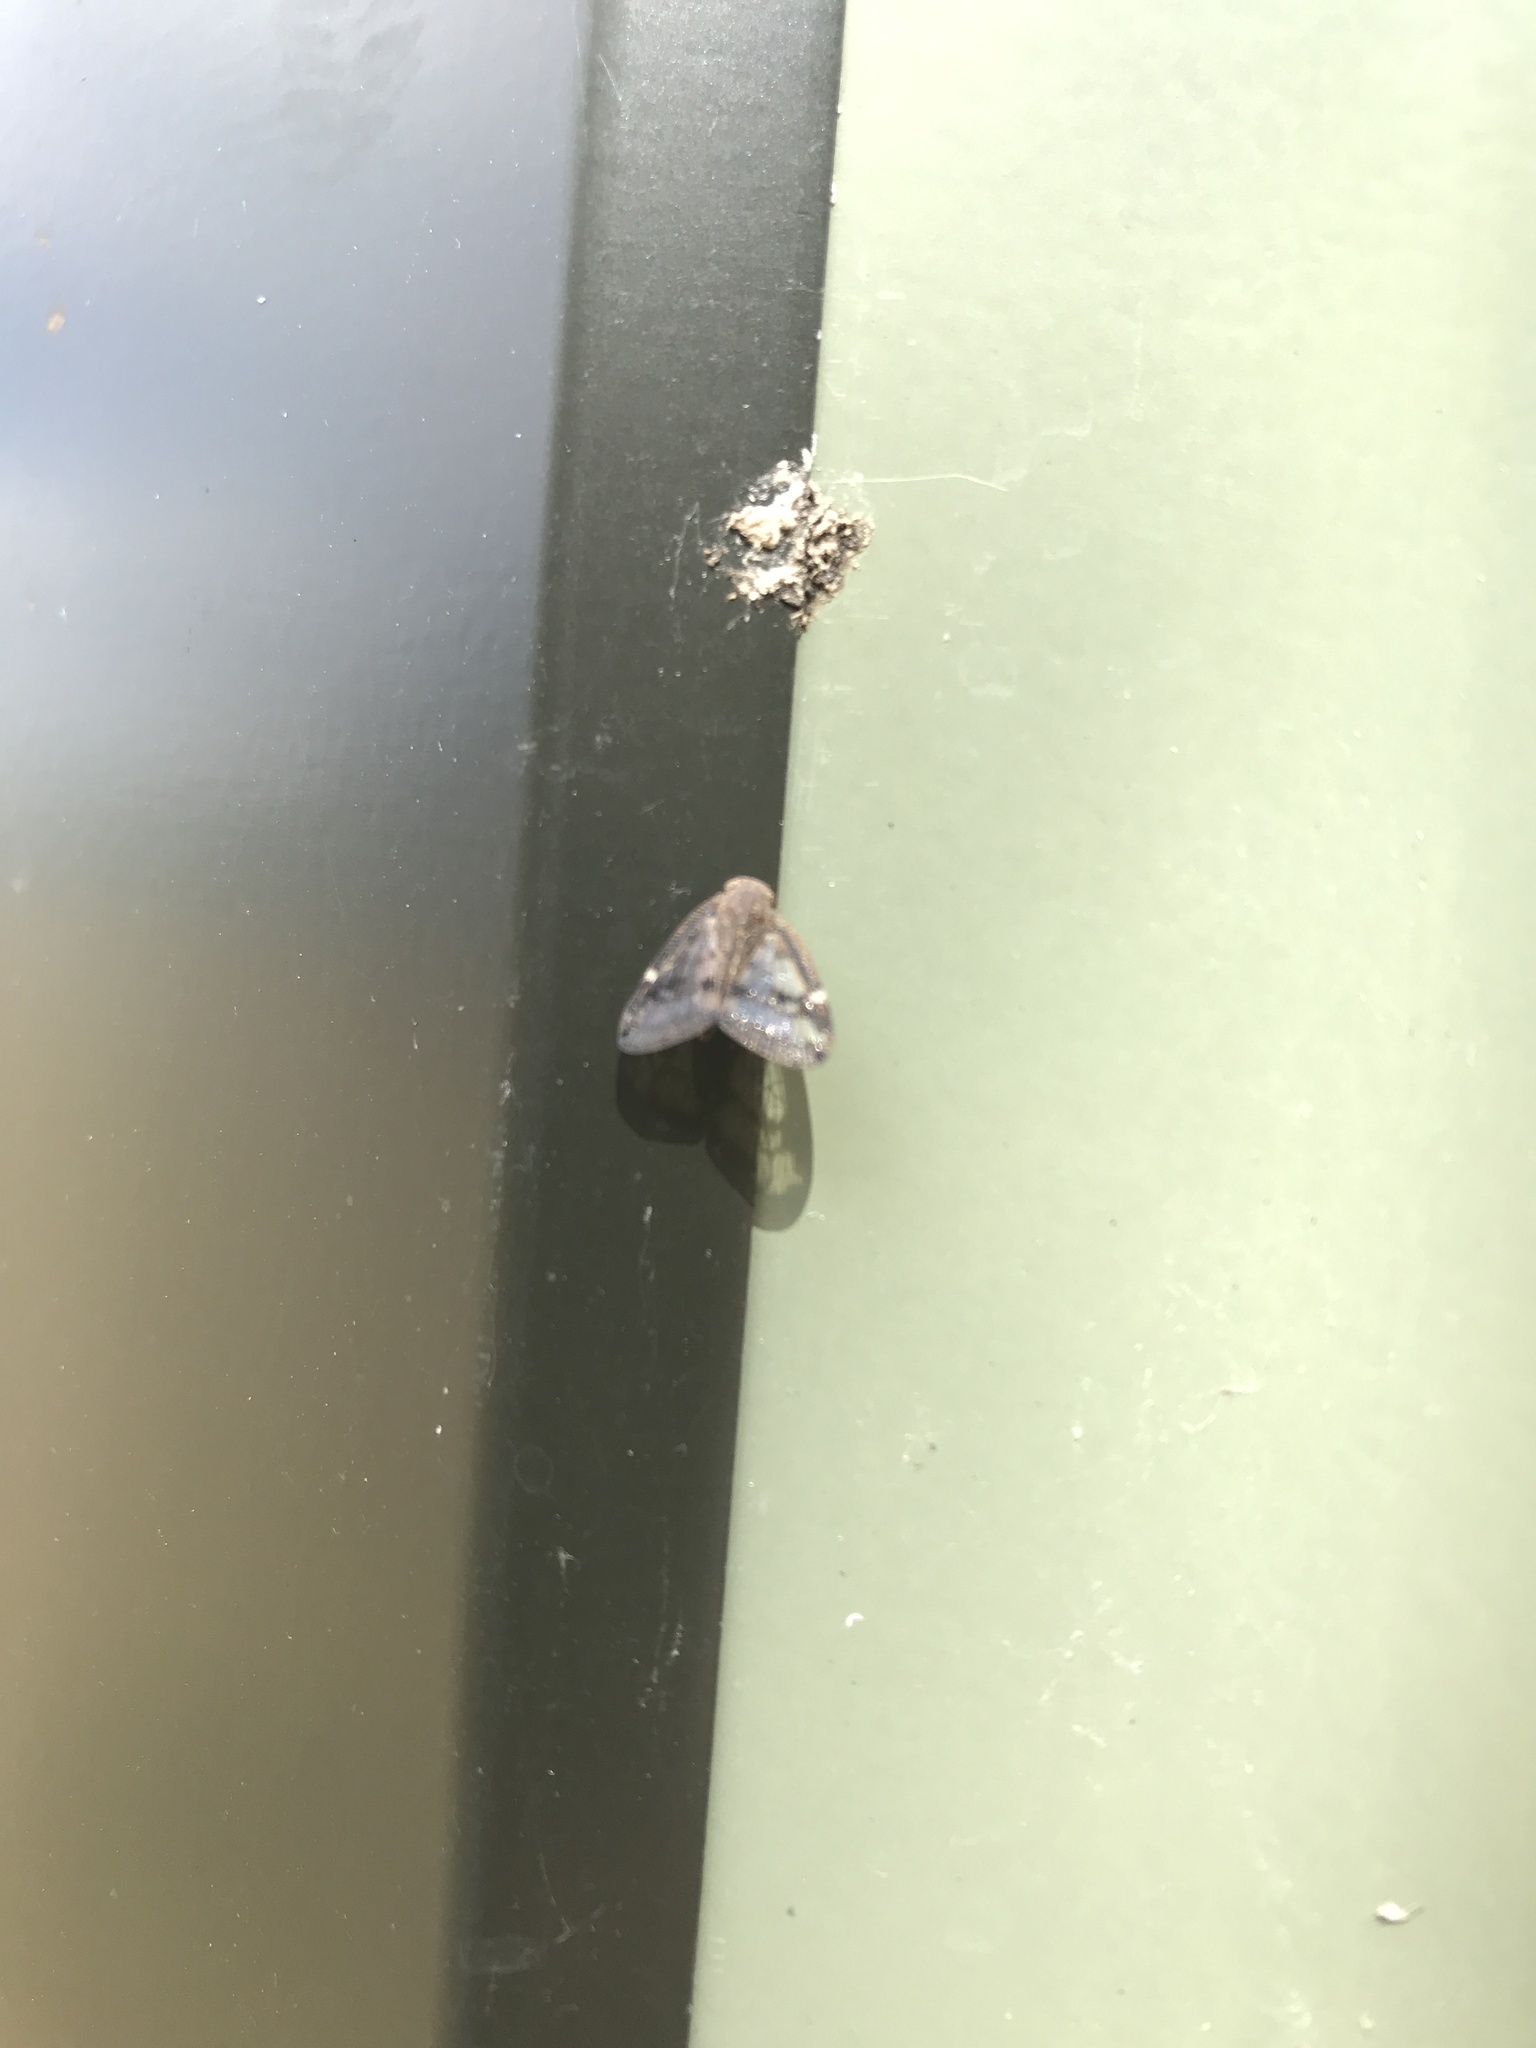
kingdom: Animalia
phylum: Arthropoda
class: Insecta
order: Hemiptera
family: Ricaniidae
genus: Scolypopa
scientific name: Scolypopa australis
